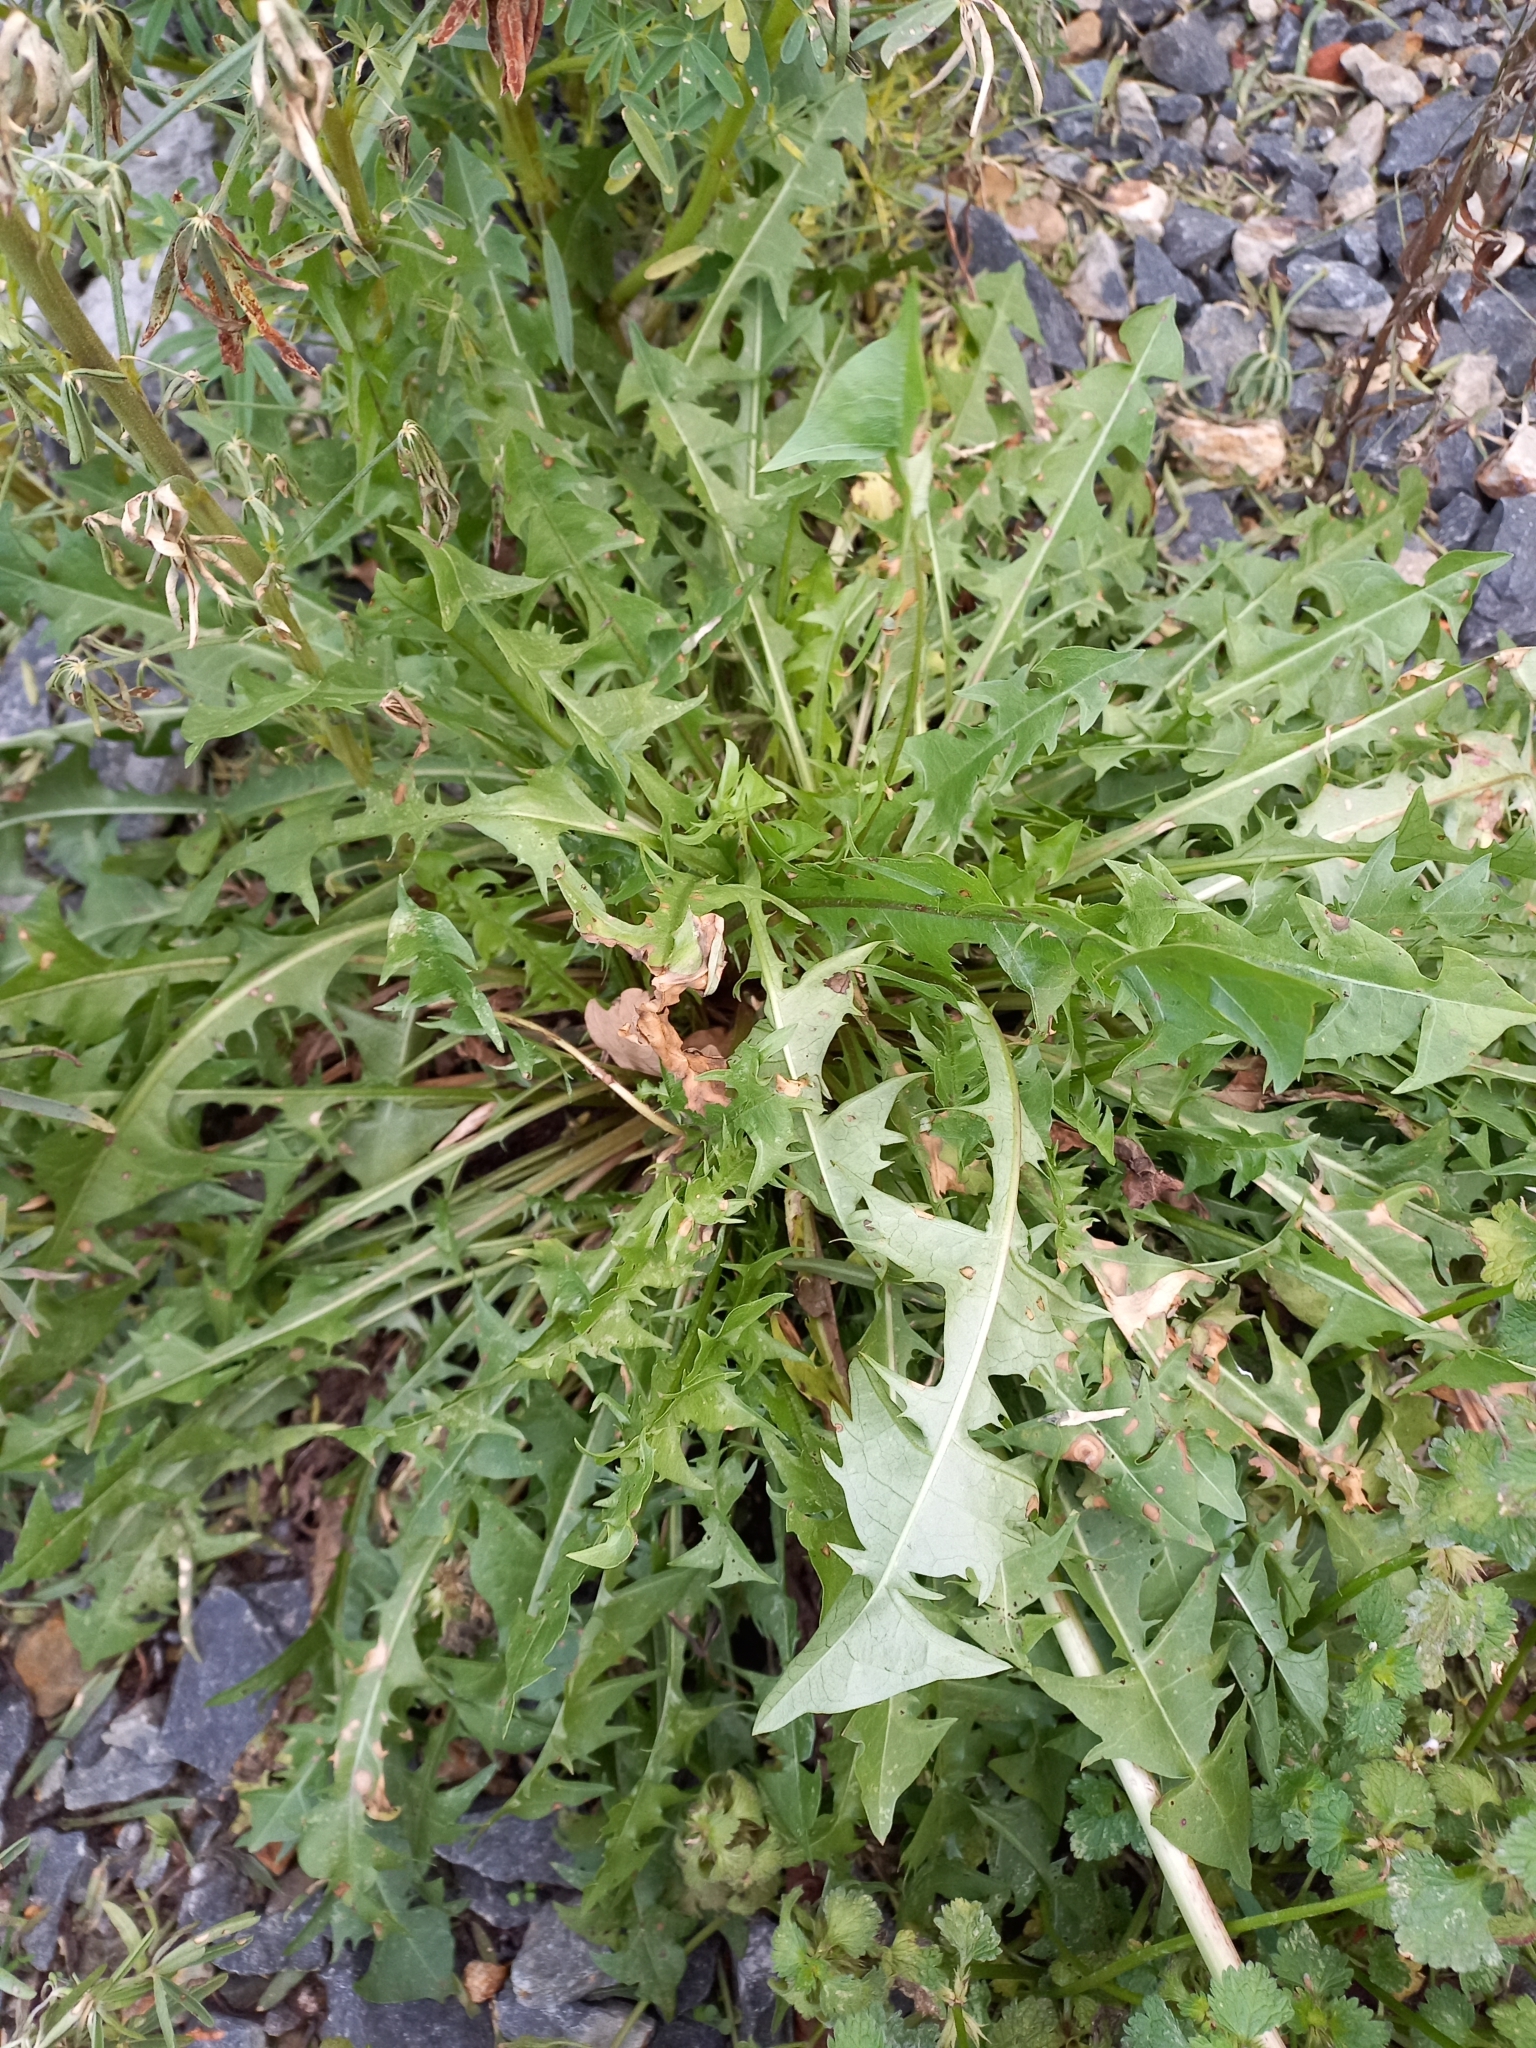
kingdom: Plantae
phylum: Tracheophyta
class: Magnoliopsida
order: Asterales
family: Asteraceae
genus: Taraxacum
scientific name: Taraxacum officinale
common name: Common dandelion
